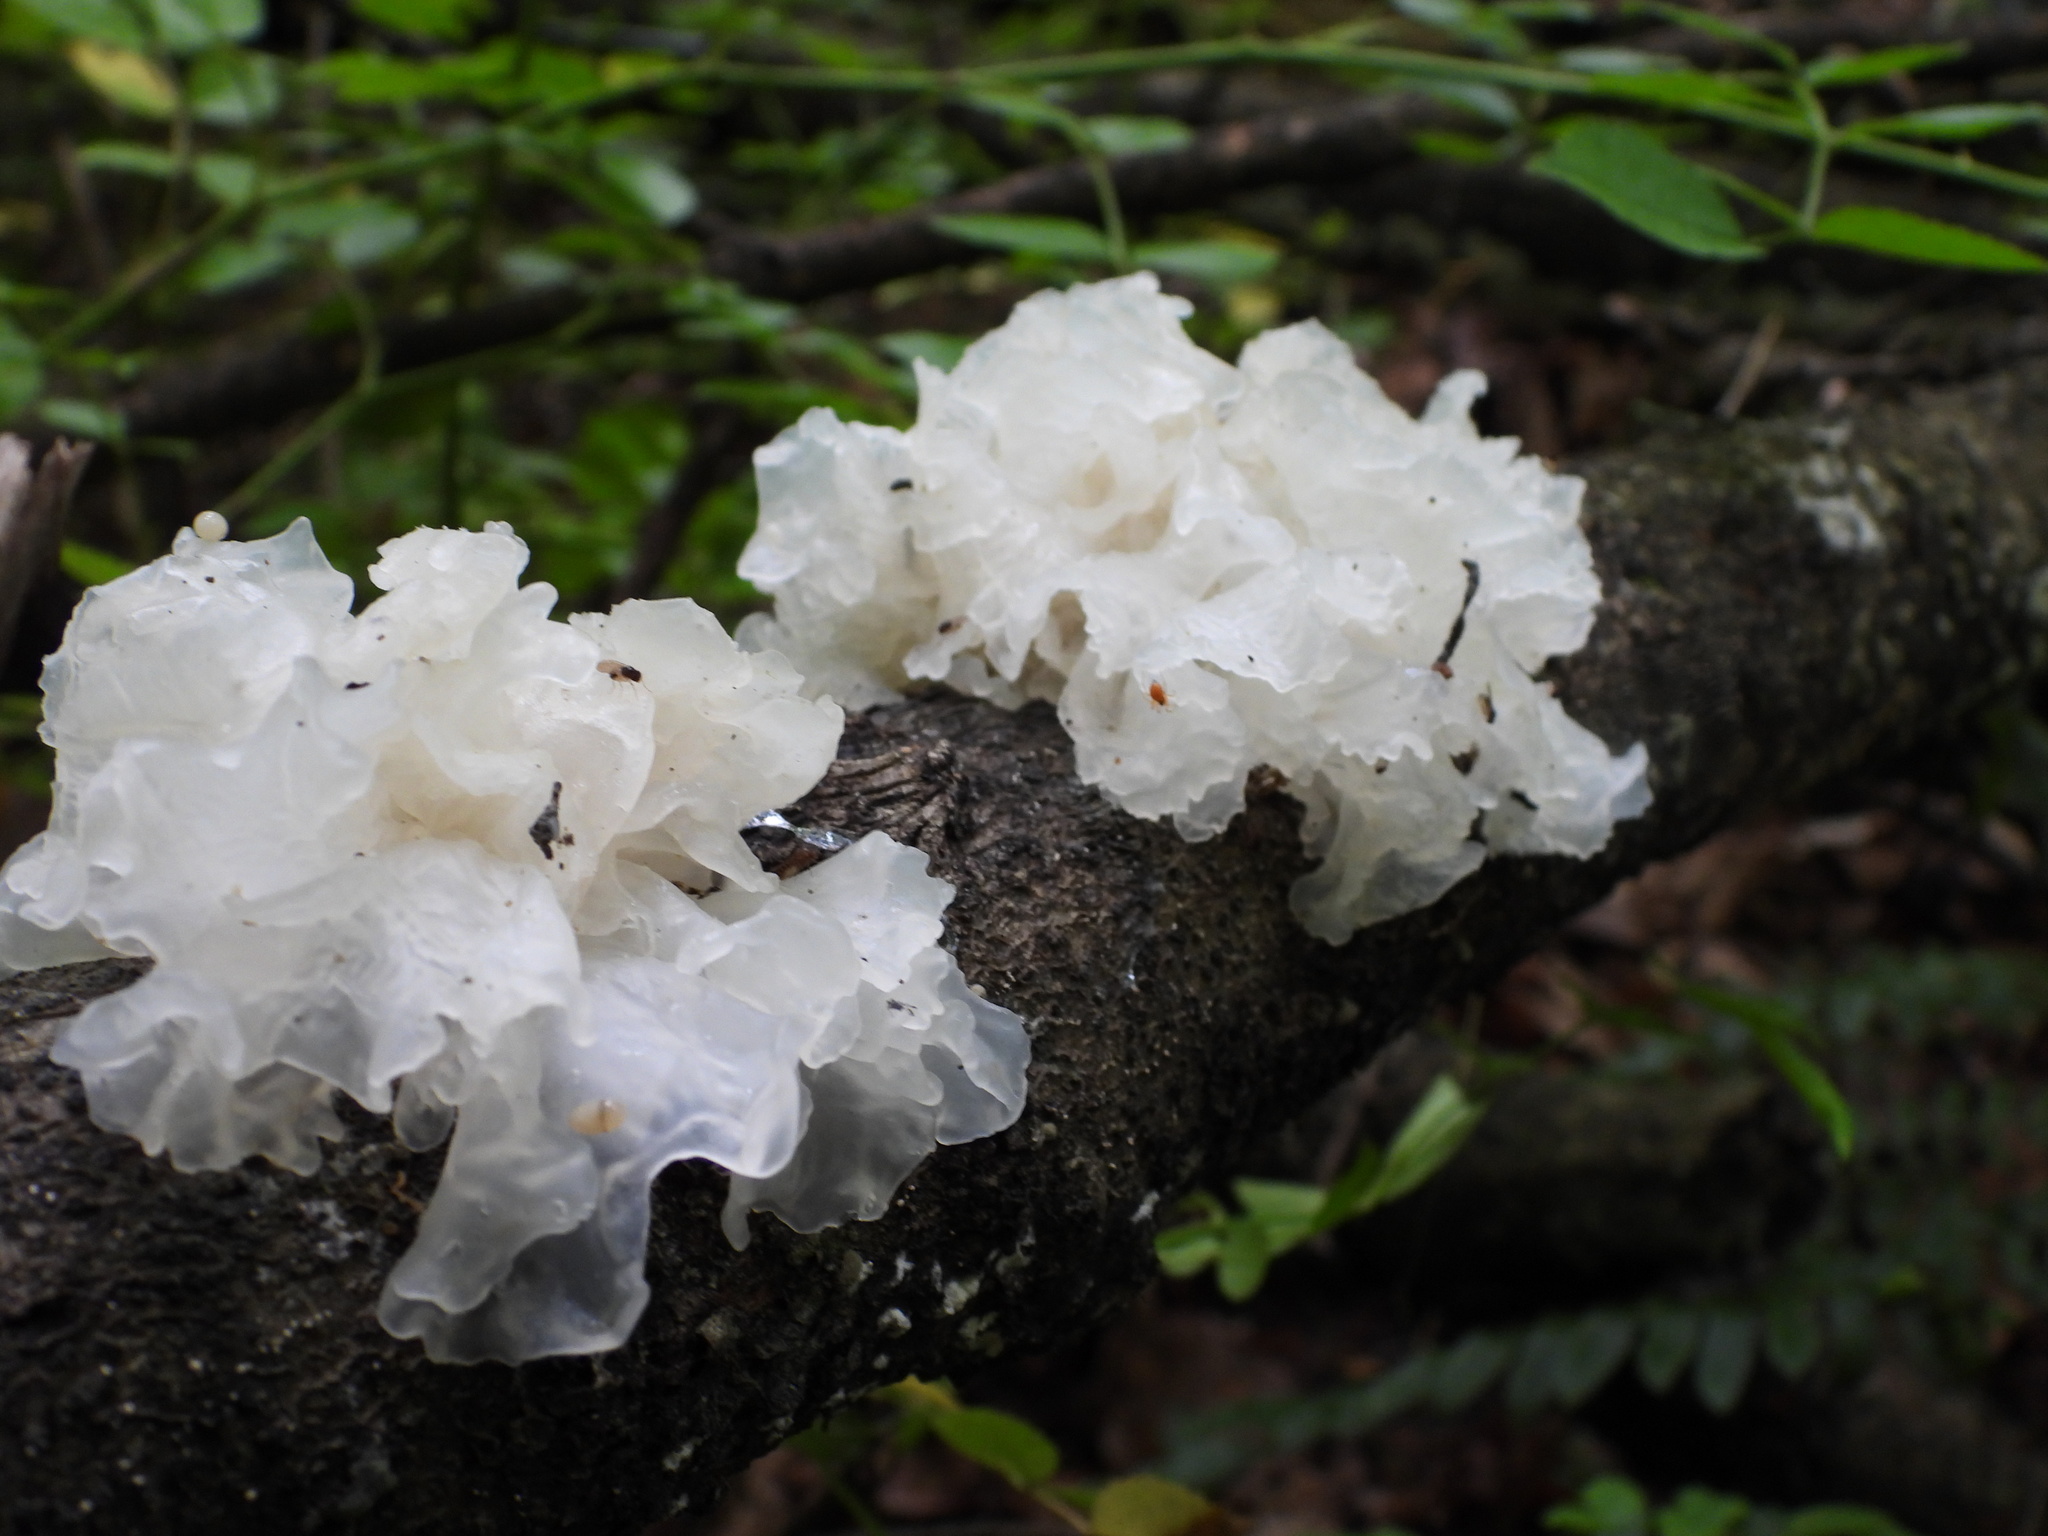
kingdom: Fungi
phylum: Basidiomycota
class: Tremellomycetes
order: Tremellales
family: Tremellaceae
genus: Tremella
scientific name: Tremella fuciformis
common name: Snow fungus
